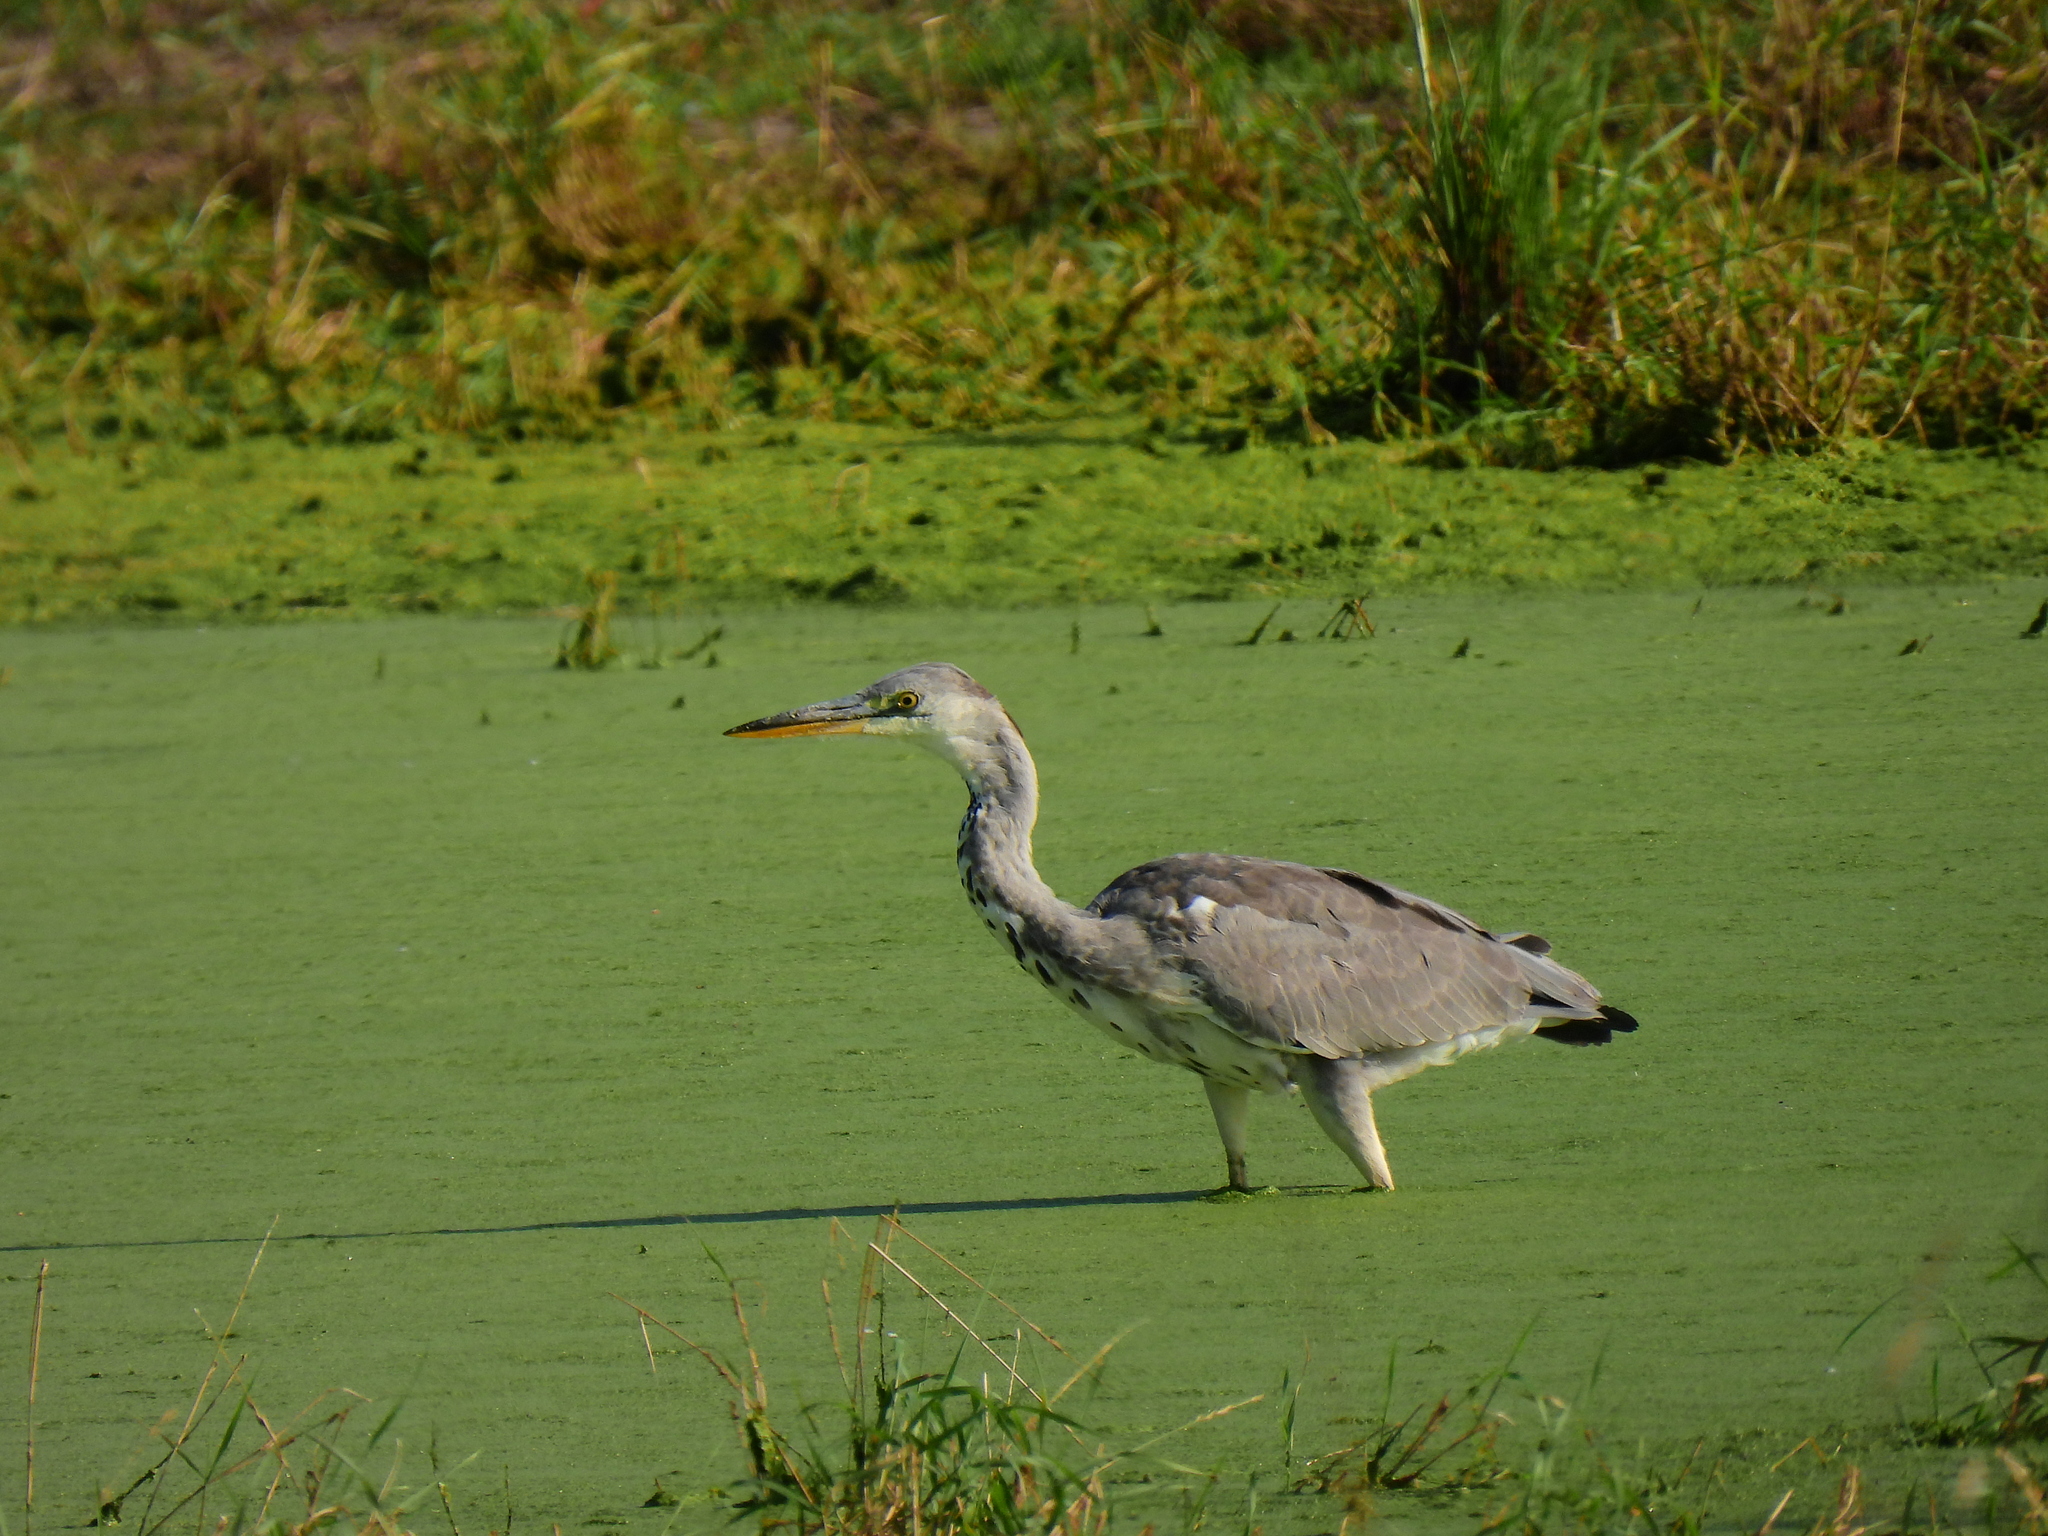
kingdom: Animalia
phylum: Chordata
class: Aves
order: Pelecaniformes
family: Ardeidae
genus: Ardea
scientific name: Ardea cinerea
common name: Grey heron
